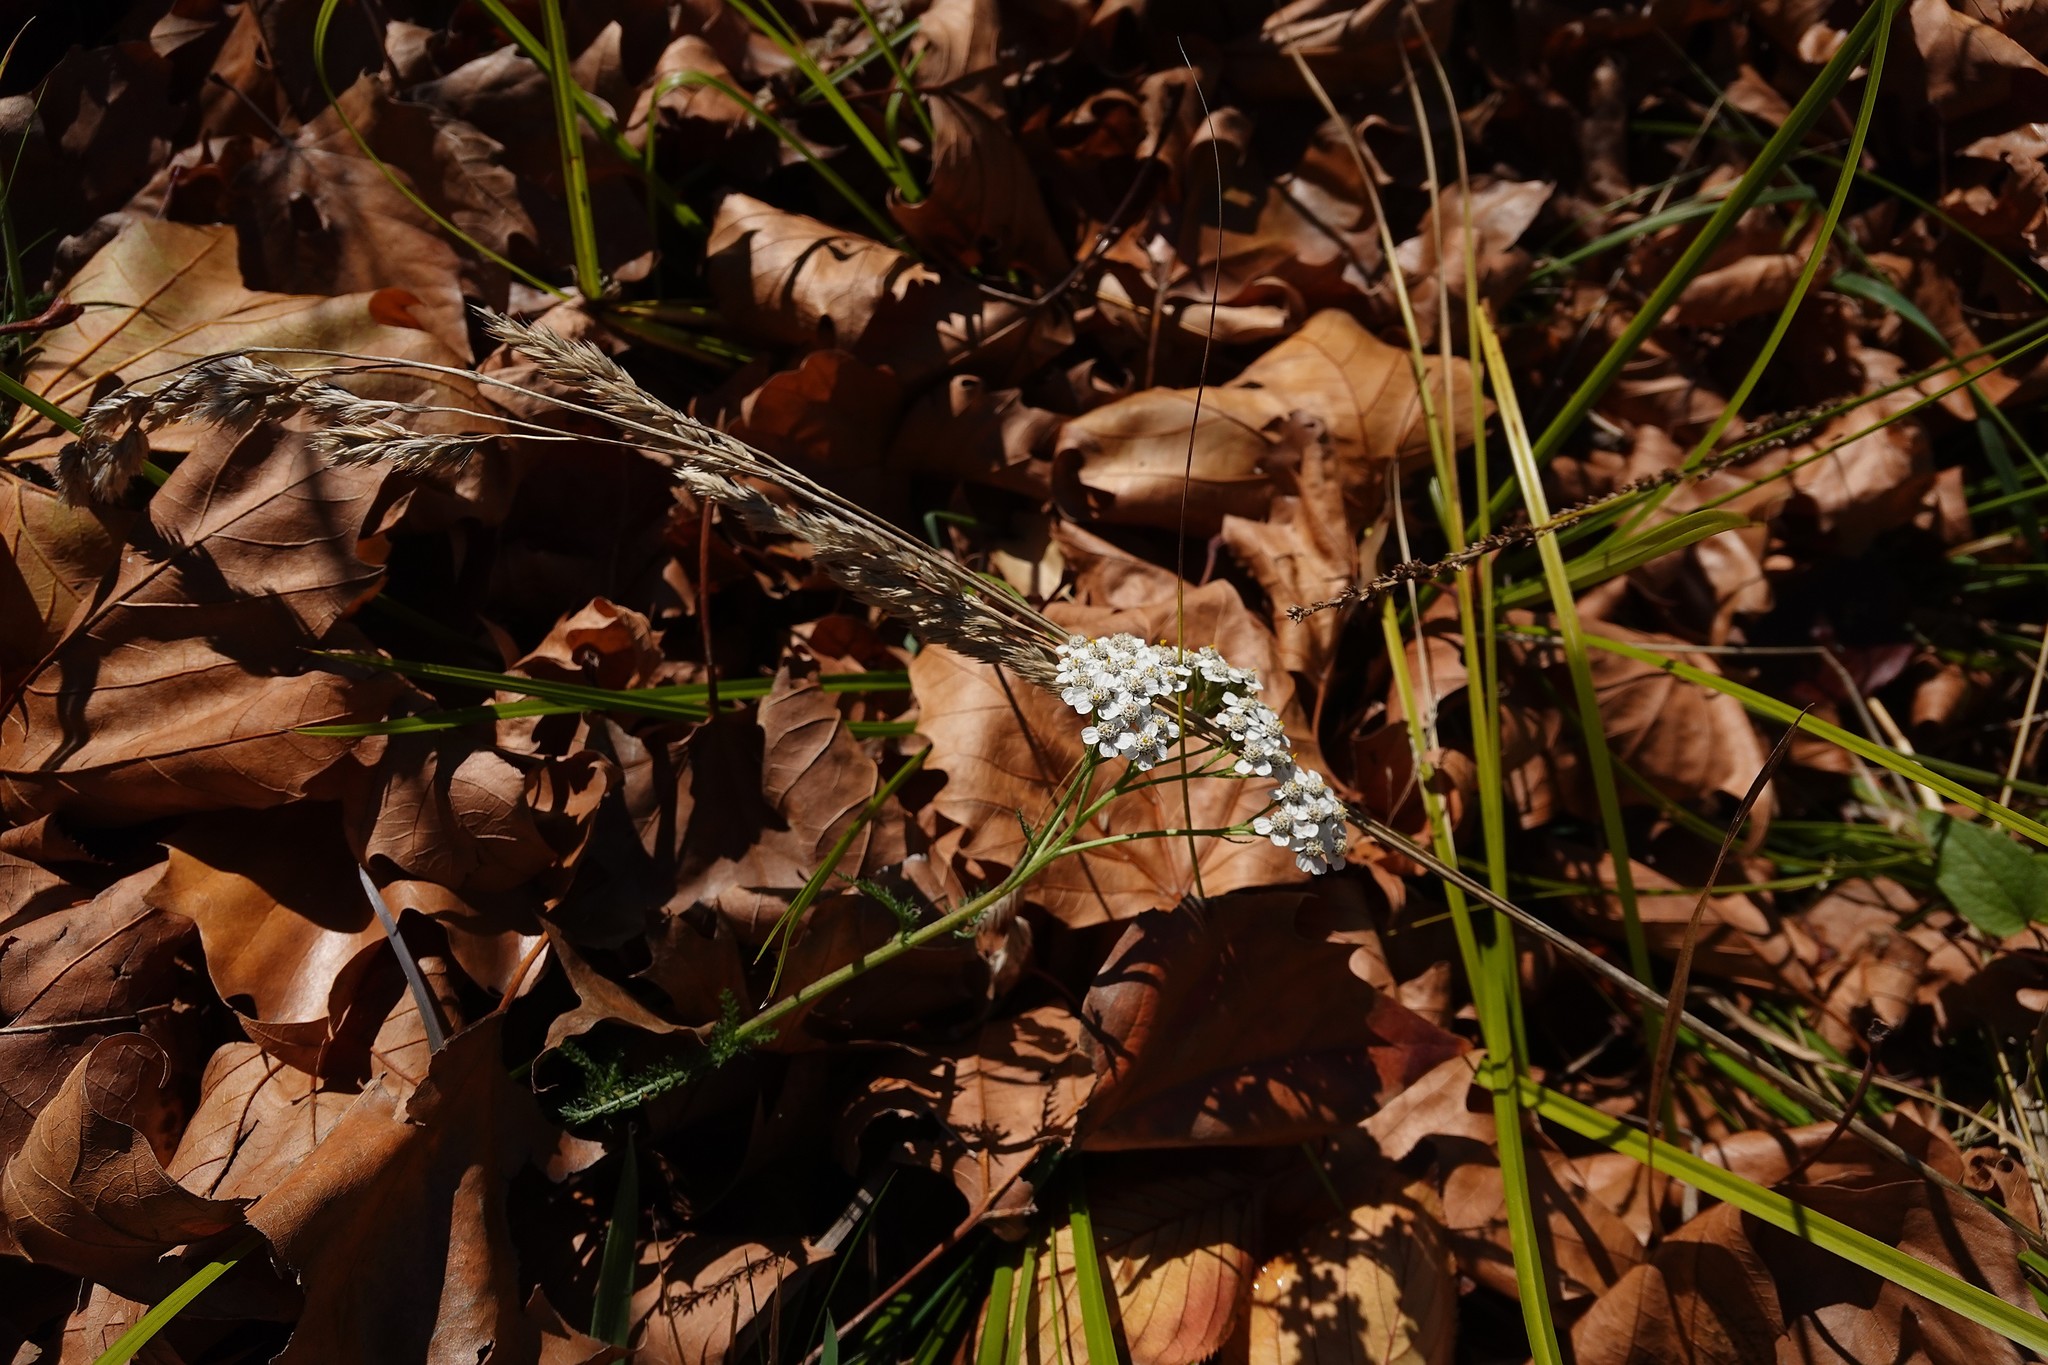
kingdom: Plantae
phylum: Tracheophyta
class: Magnoliopsida
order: Asterales
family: Asteraceae
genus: Achillea
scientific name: Achillea millefolium
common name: Yarrow
